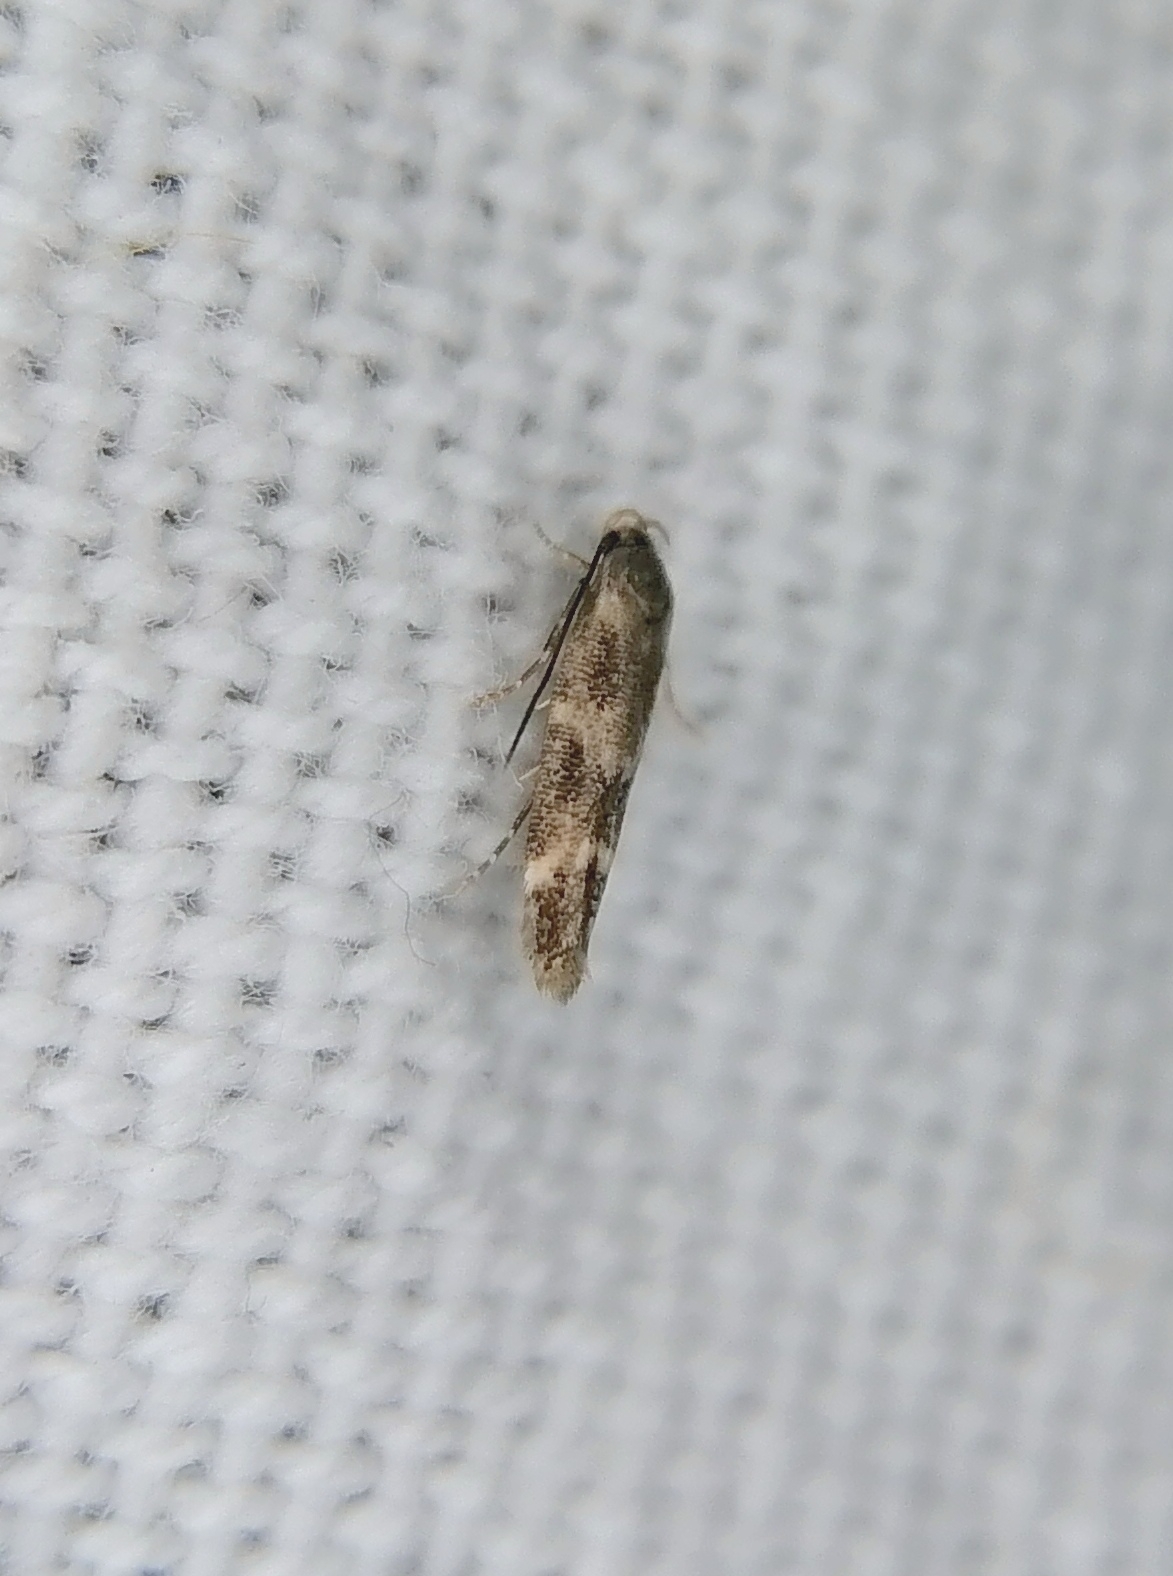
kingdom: Animalia
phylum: Arthropoda
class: Insecta
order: Lepidoptera
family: Momphidae
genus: Mompha
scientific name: Mompha subbistrigella
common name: Garden cosmet
